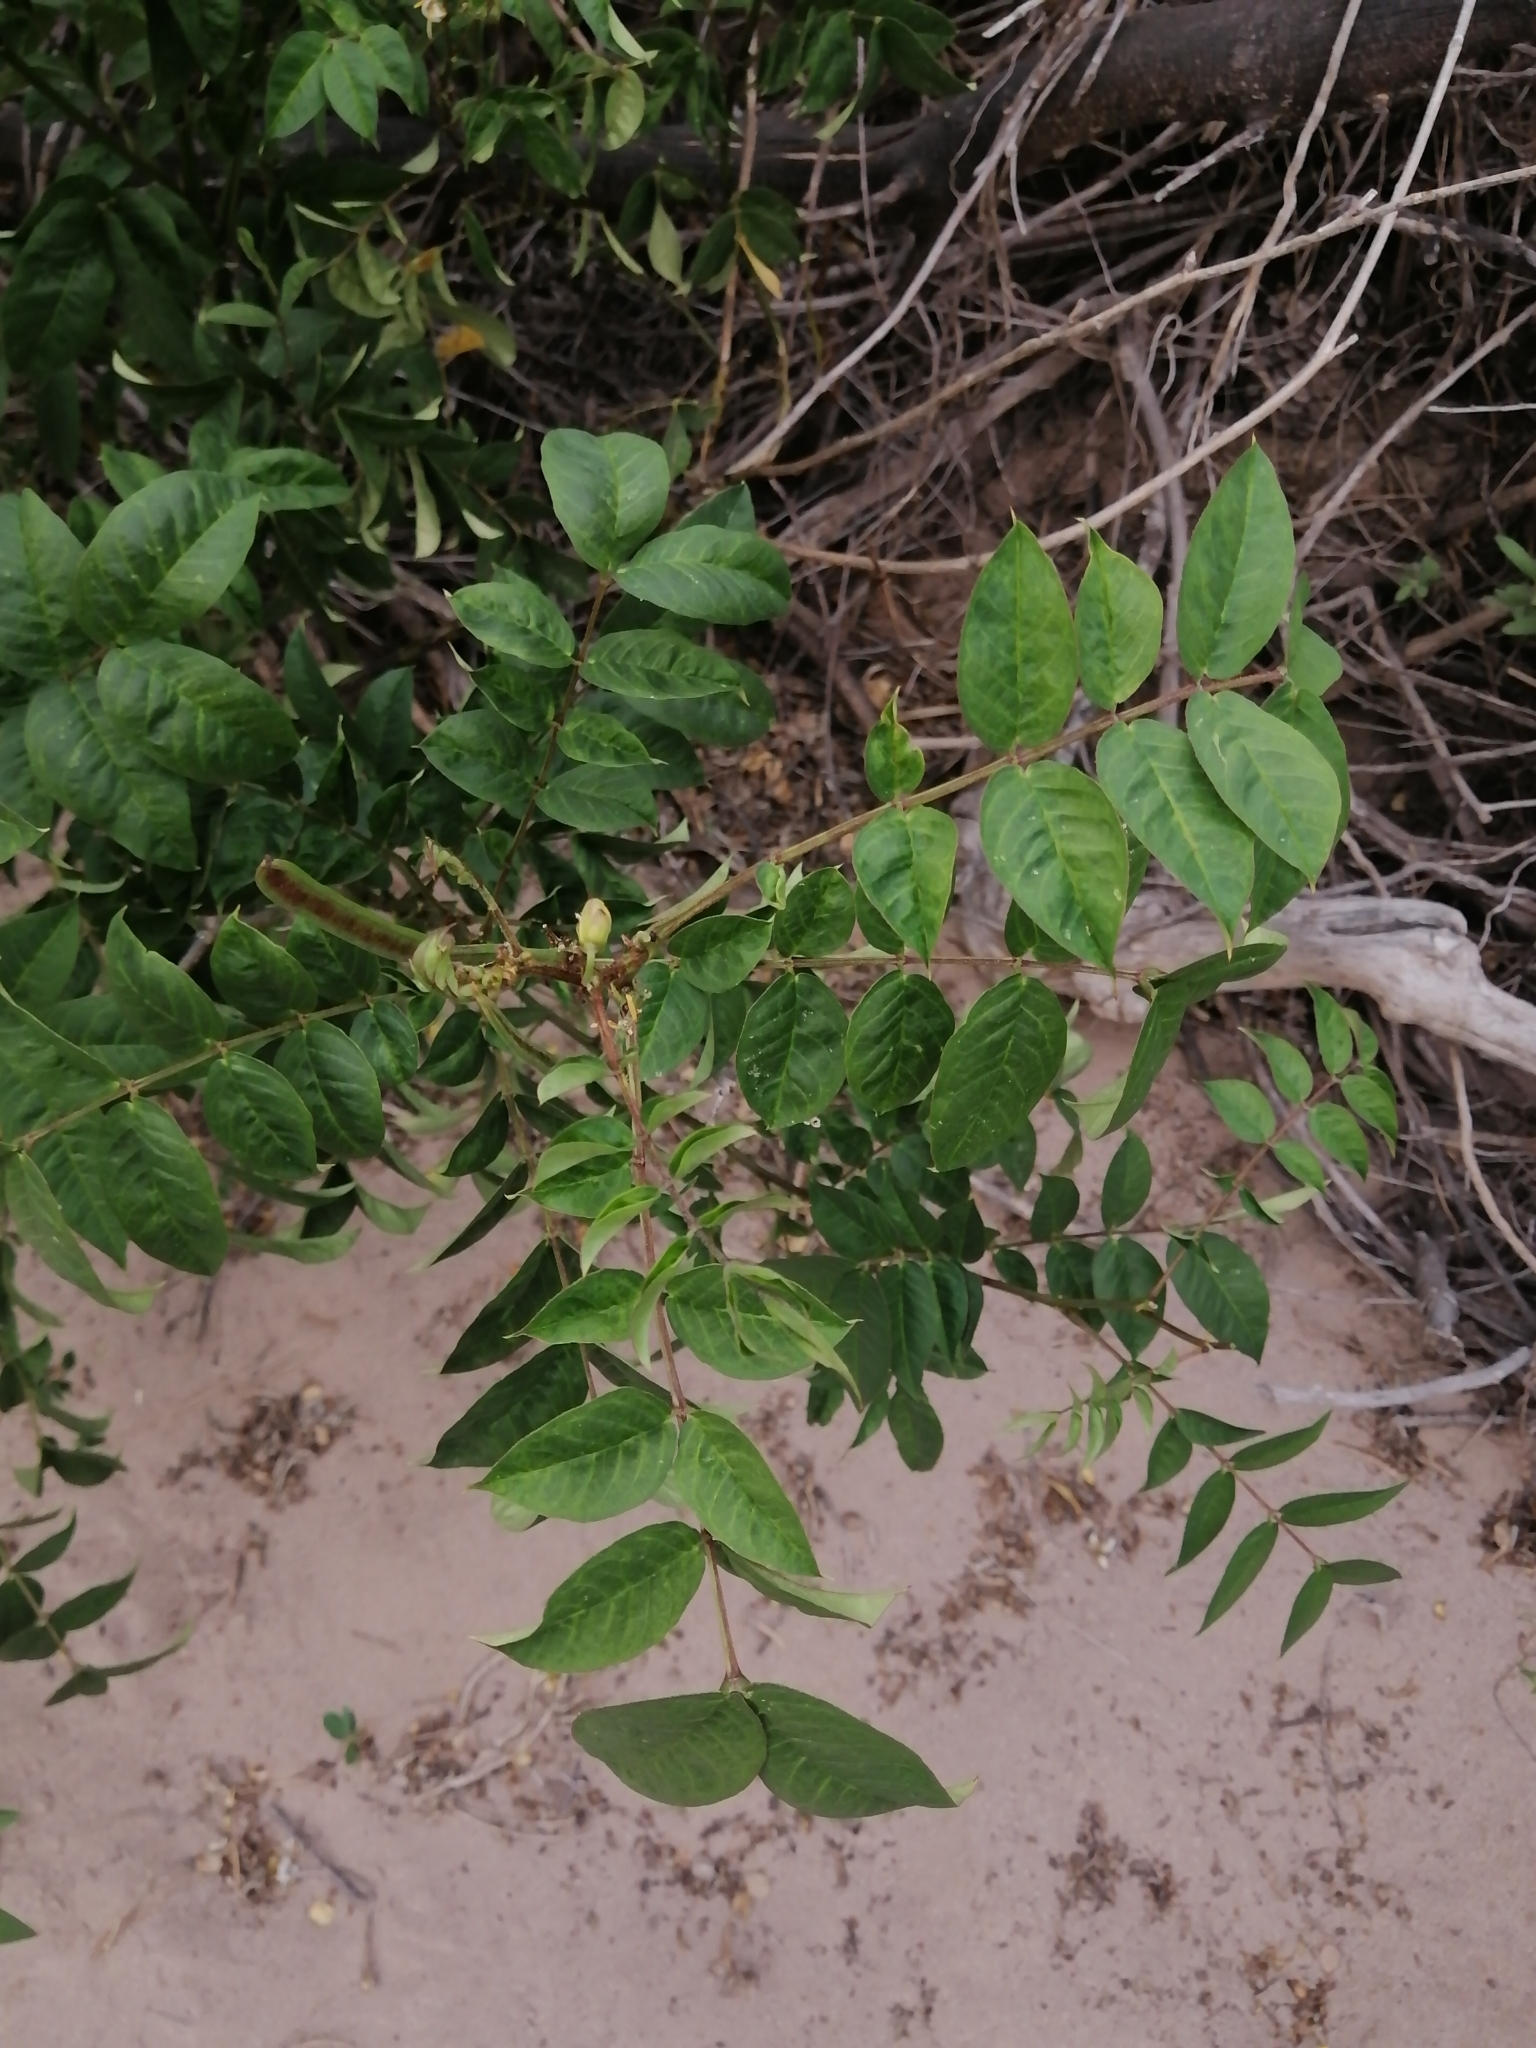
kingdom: Plantae
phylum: Tracheophyta
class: Magnoliopsida
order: Fabales
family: Fabaceae
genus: Senna
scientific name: Senna occidentalis
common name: Septicweed
